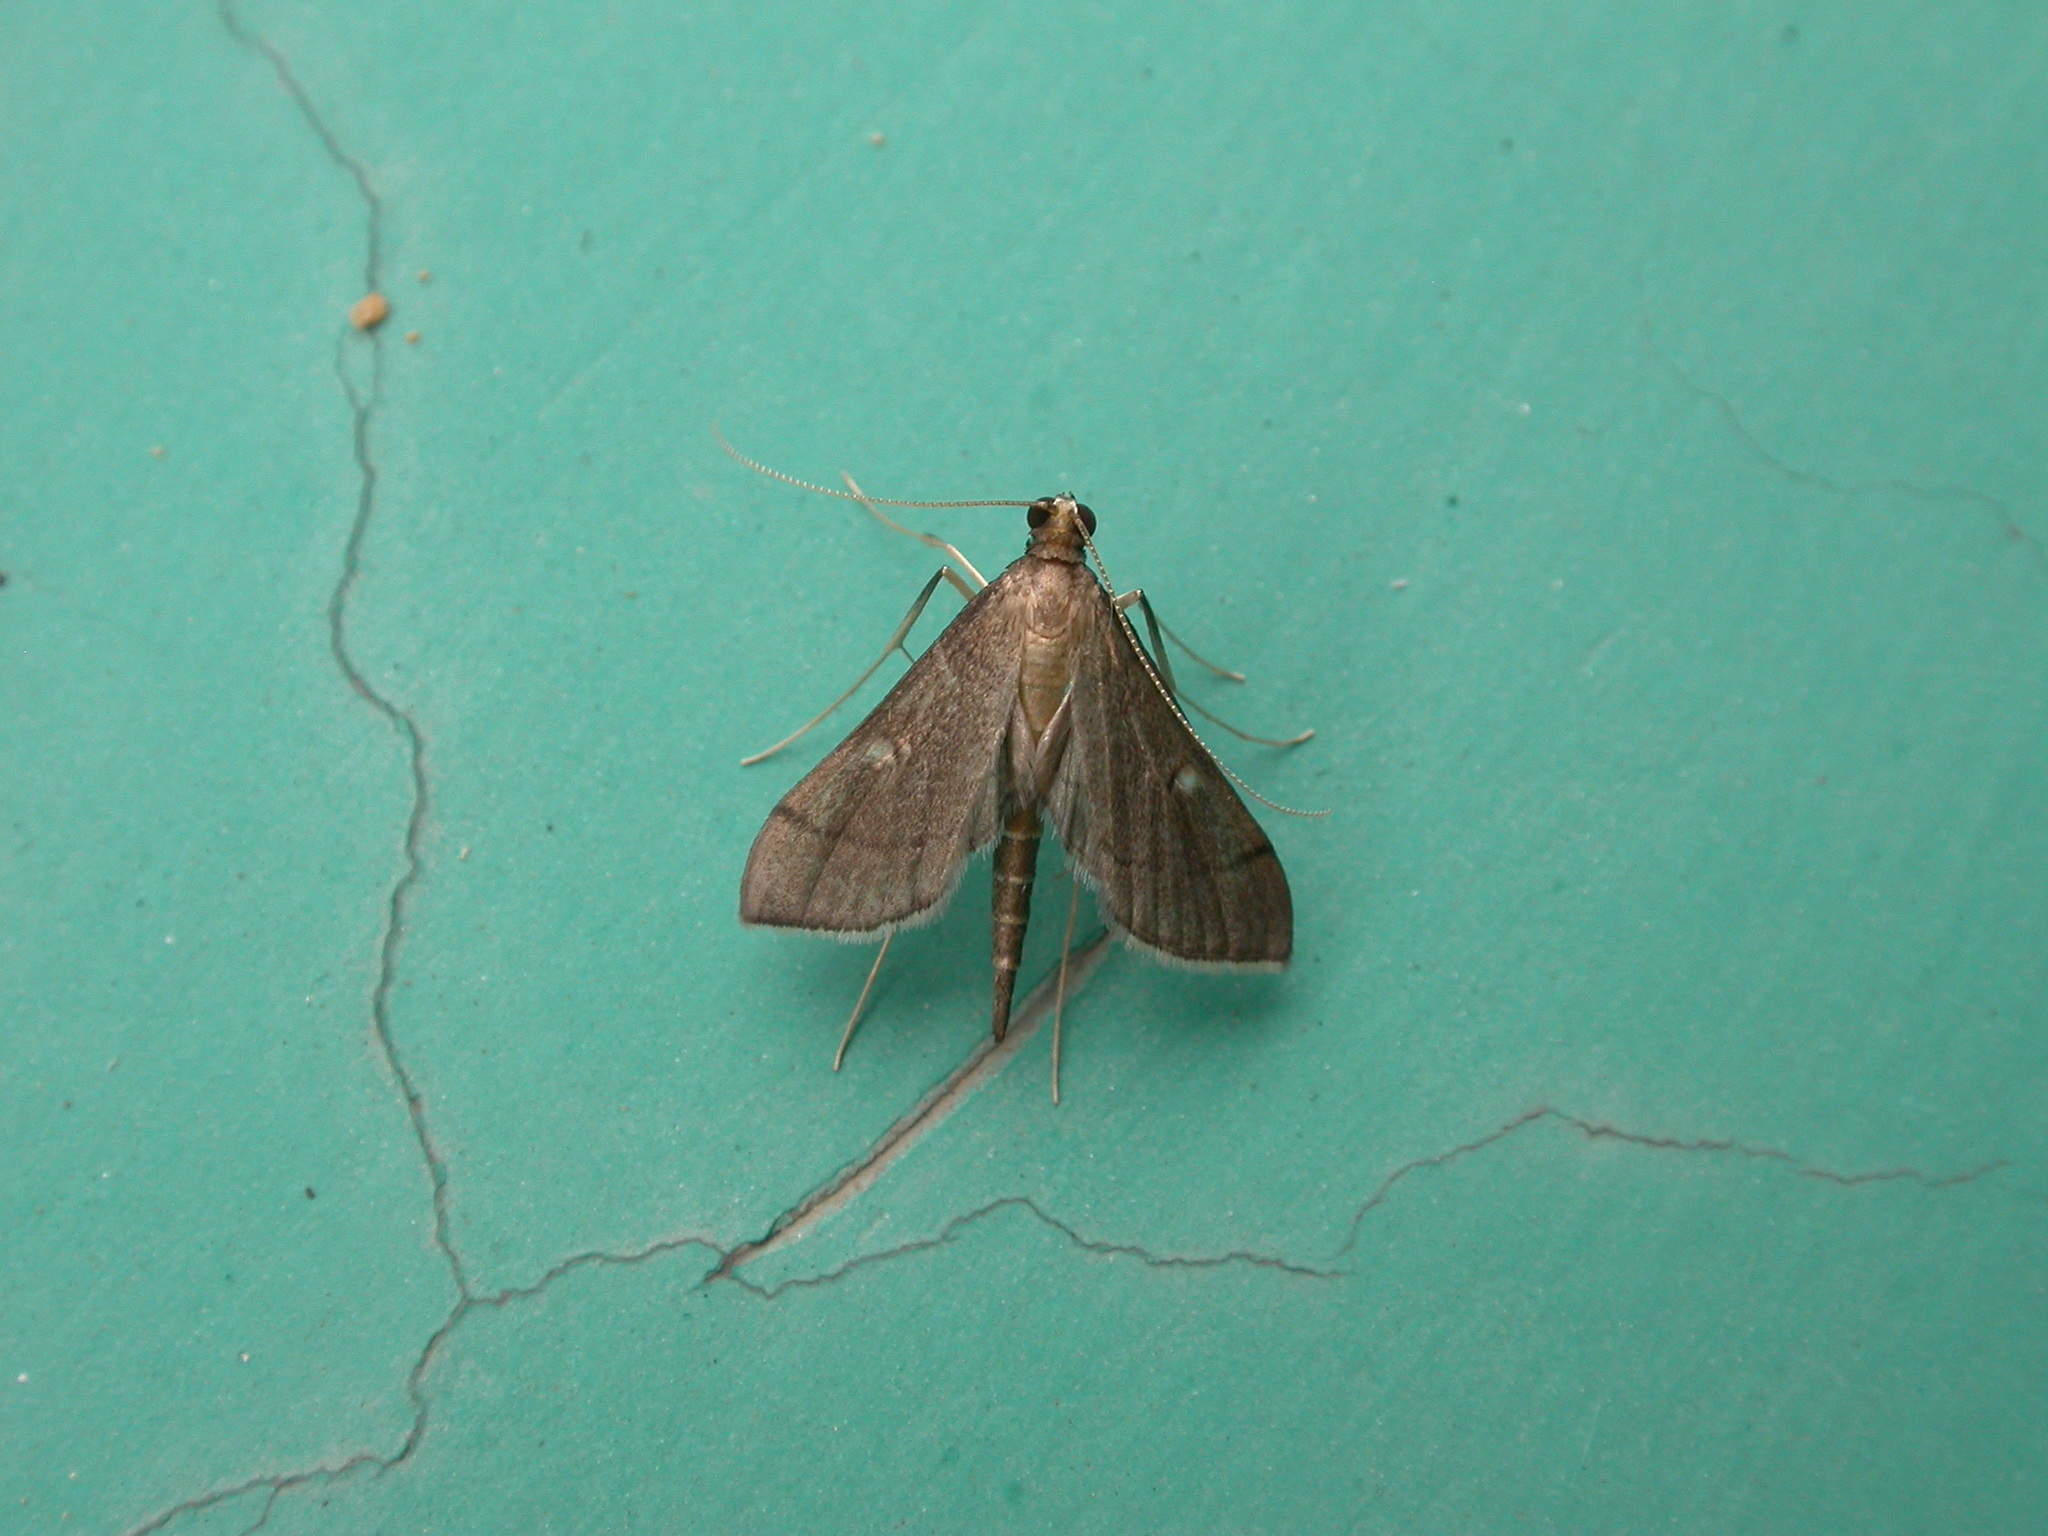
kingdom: Animalia
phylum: Arthropoda
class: Insecta
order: Lepidoptera
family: Crambidae
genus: Bradina
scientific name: Bradina atopalis
